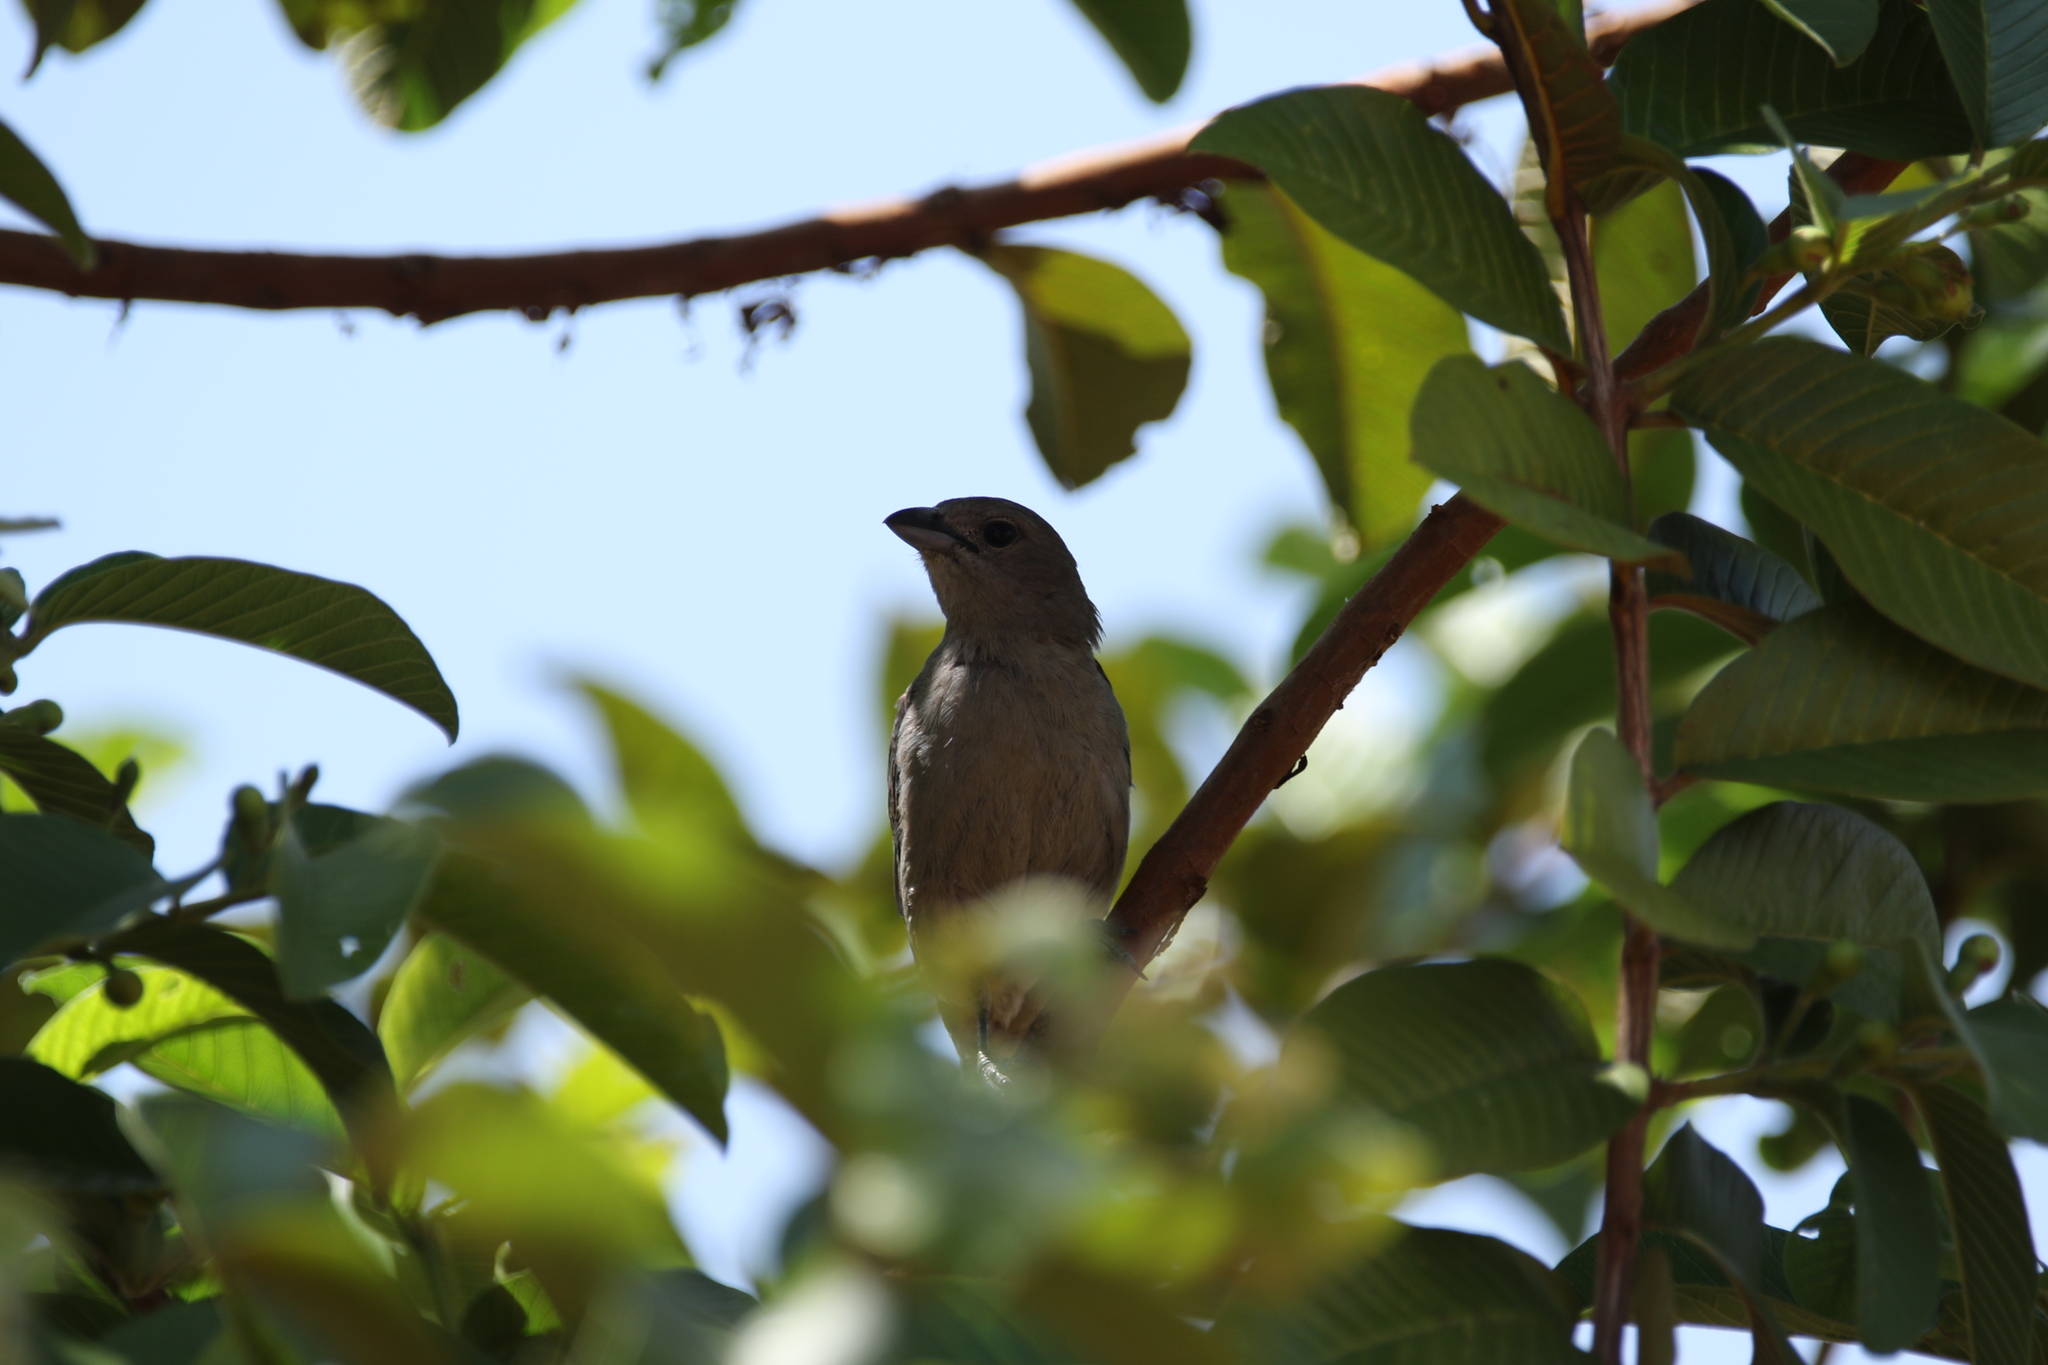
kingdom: Animalia
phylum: Chordata
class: Aves
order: Passeriformes
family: Thraupidae
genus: Thraupis
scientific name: Thraupis sayaca
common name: Sayaca tanager
